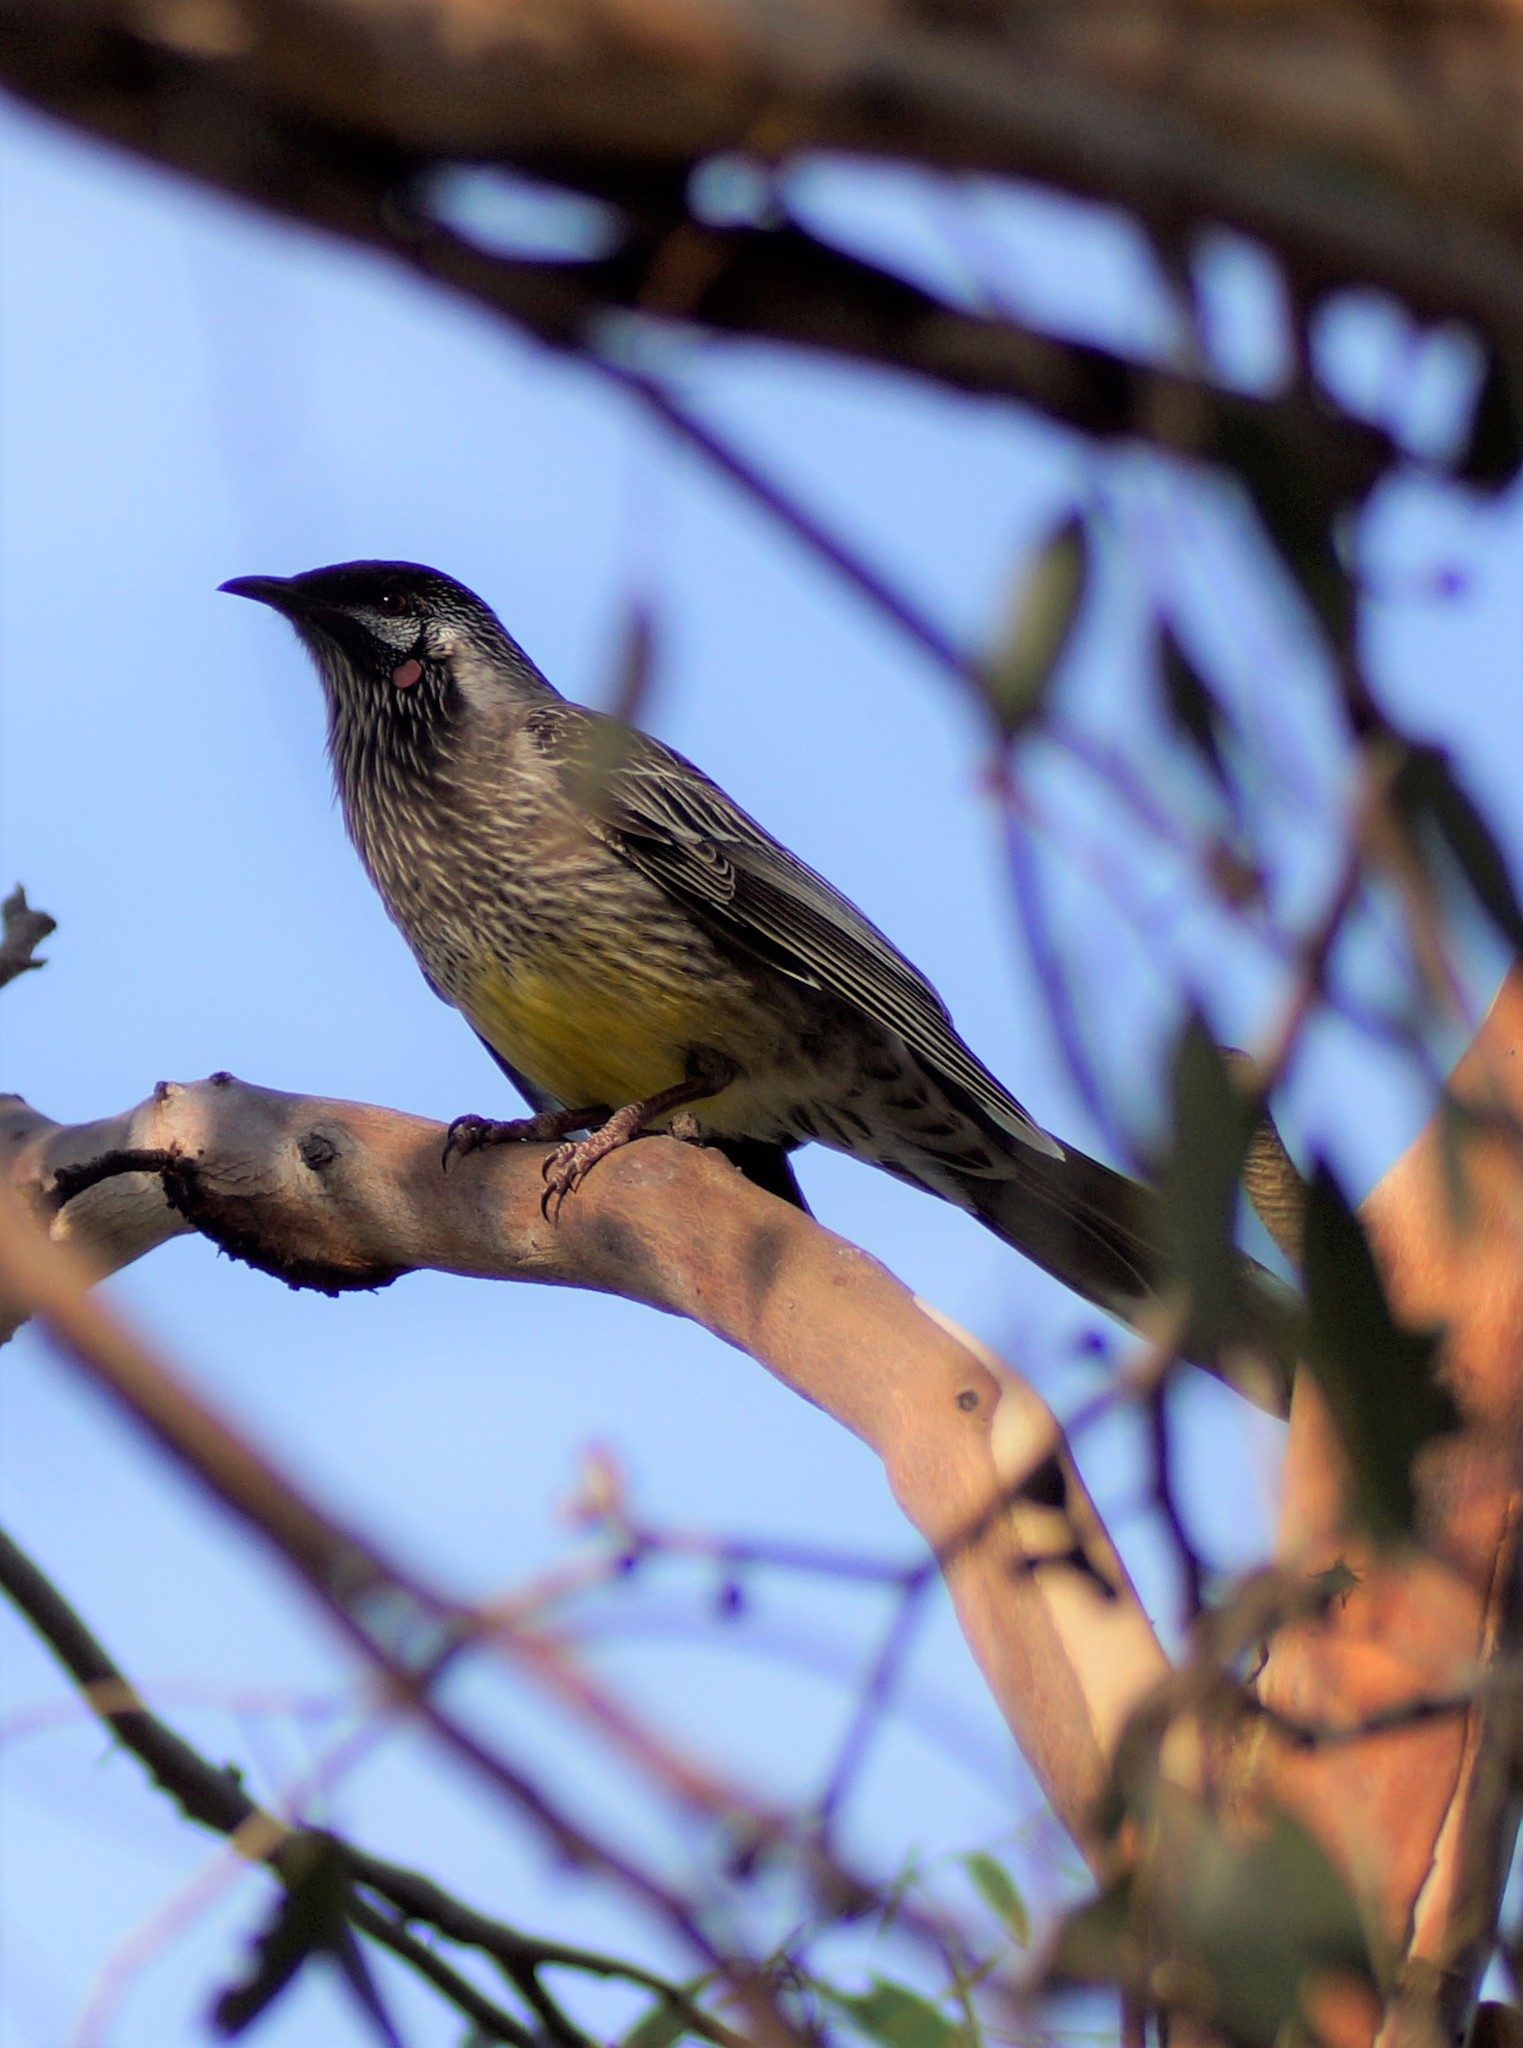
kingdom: Animalia
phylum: Chordata
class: Aves
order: Passeriformes
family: Meliphagidae
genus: Anthochaera
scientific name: Anthochaera carunculata
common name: Red wattlebird
